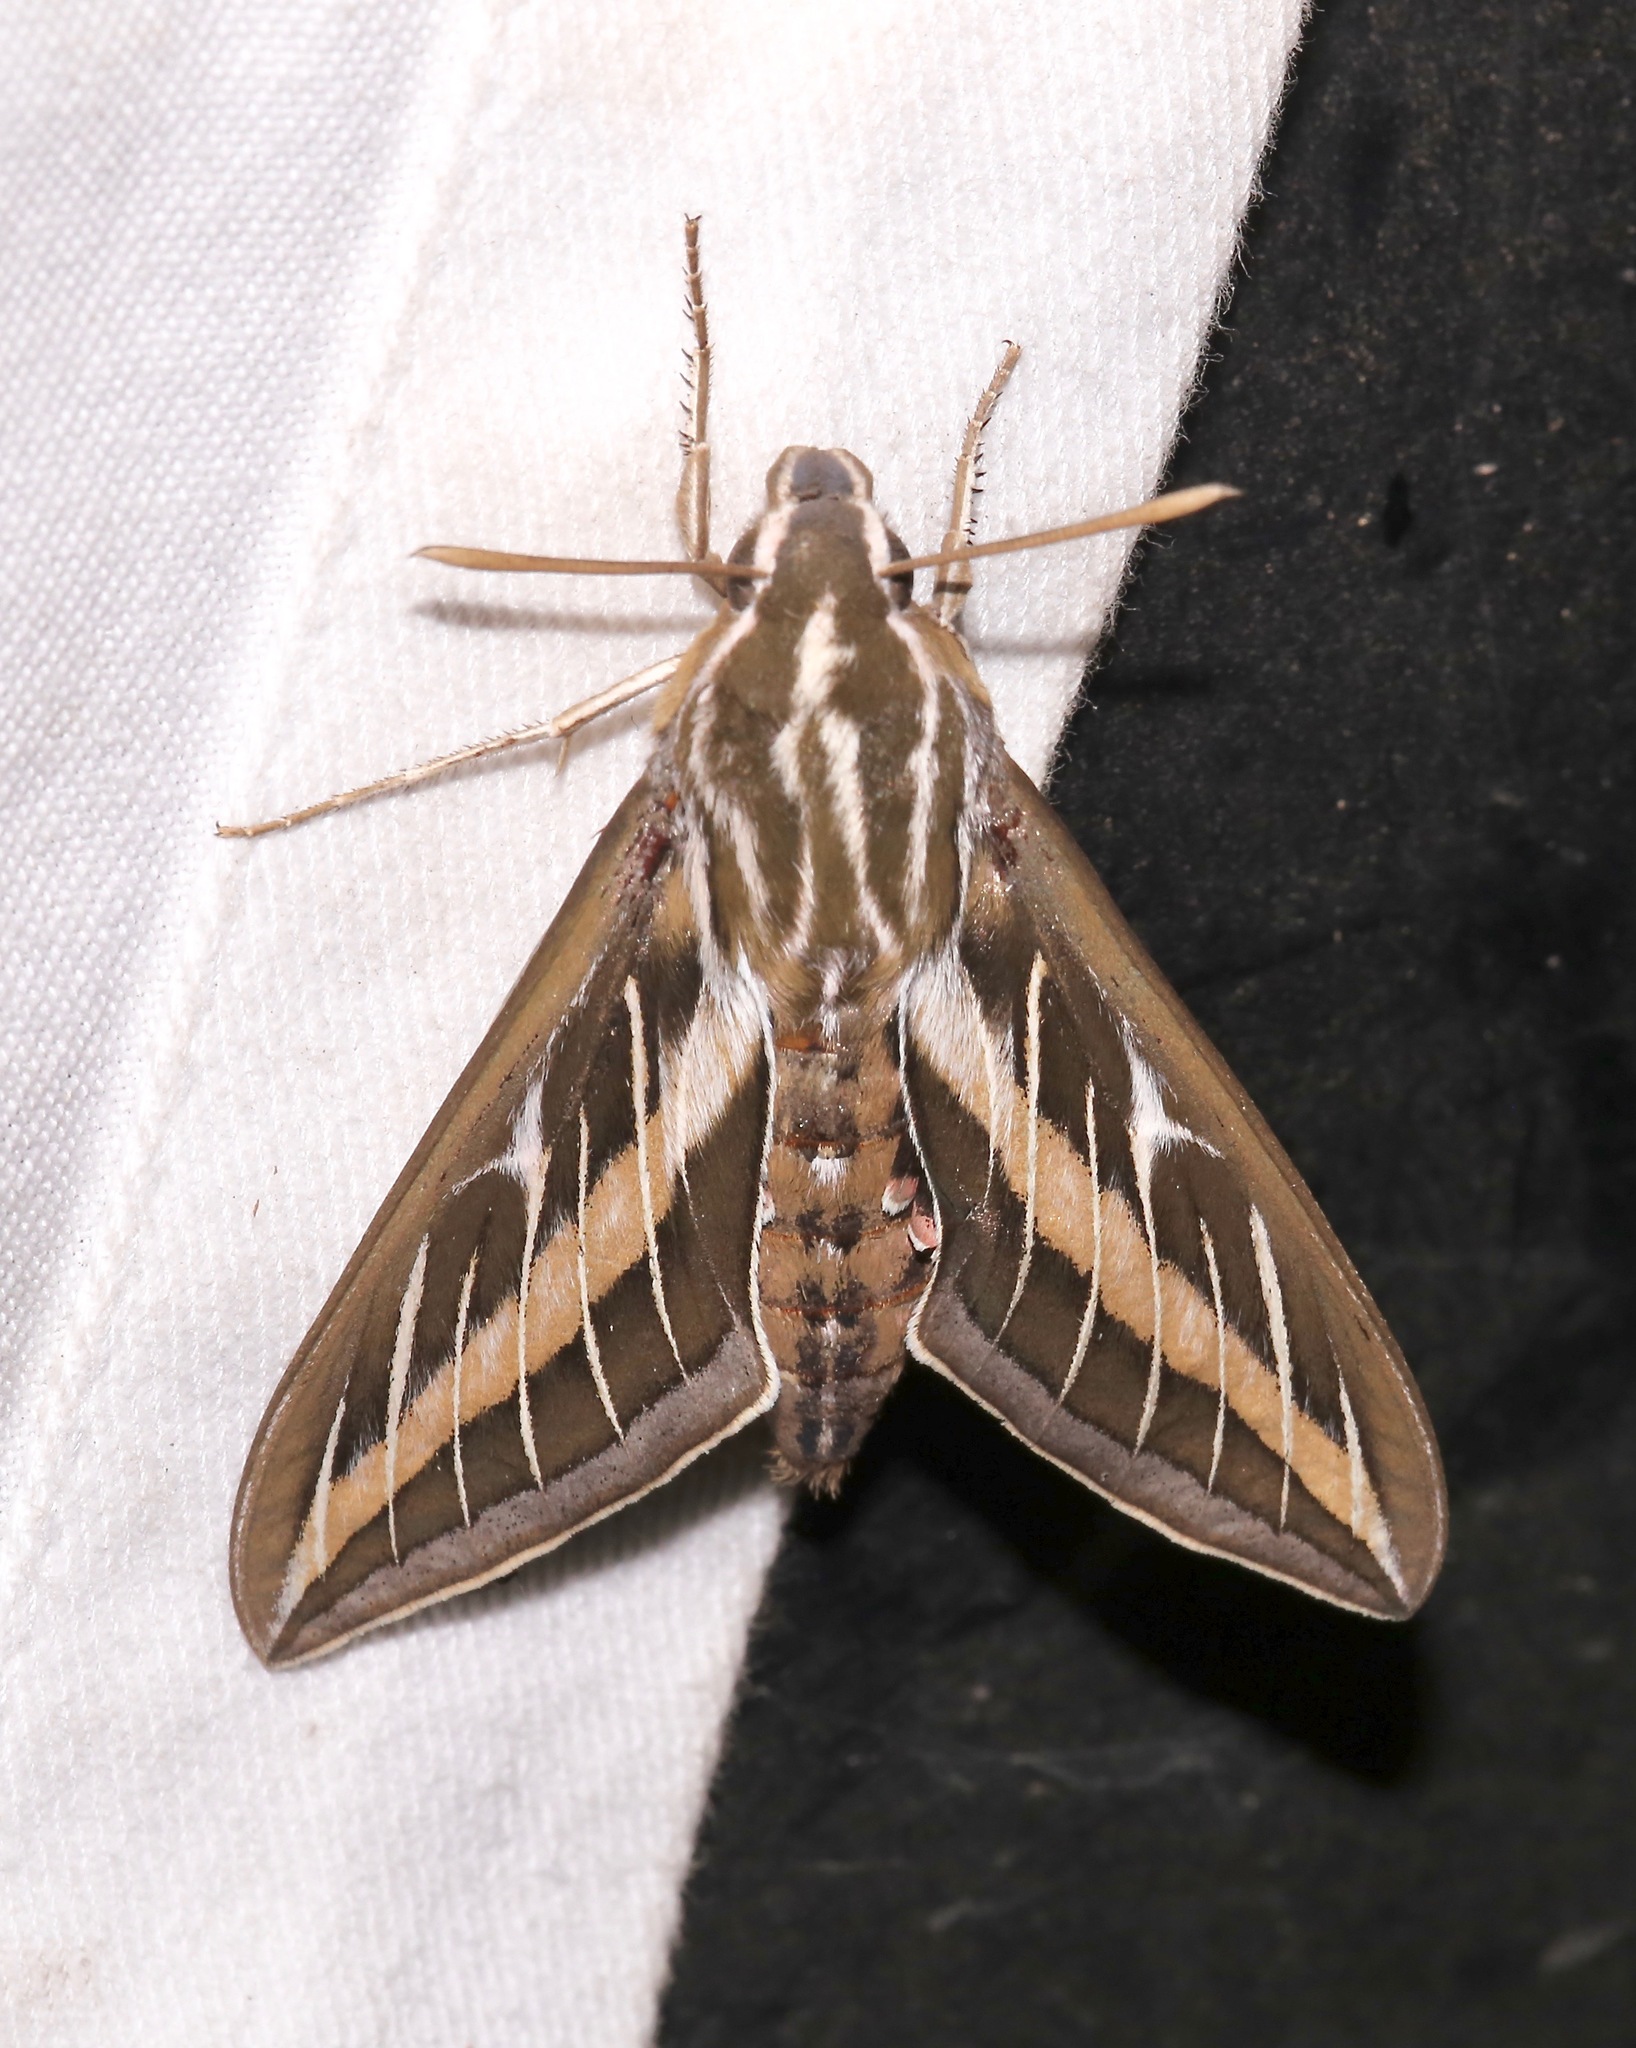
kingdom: Animalia
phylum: Arthropoda
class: Insecta
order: Lepidoptera
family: Sphingidae
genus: Hyles
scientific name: Hyles lineata
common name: White-lined sphinx
